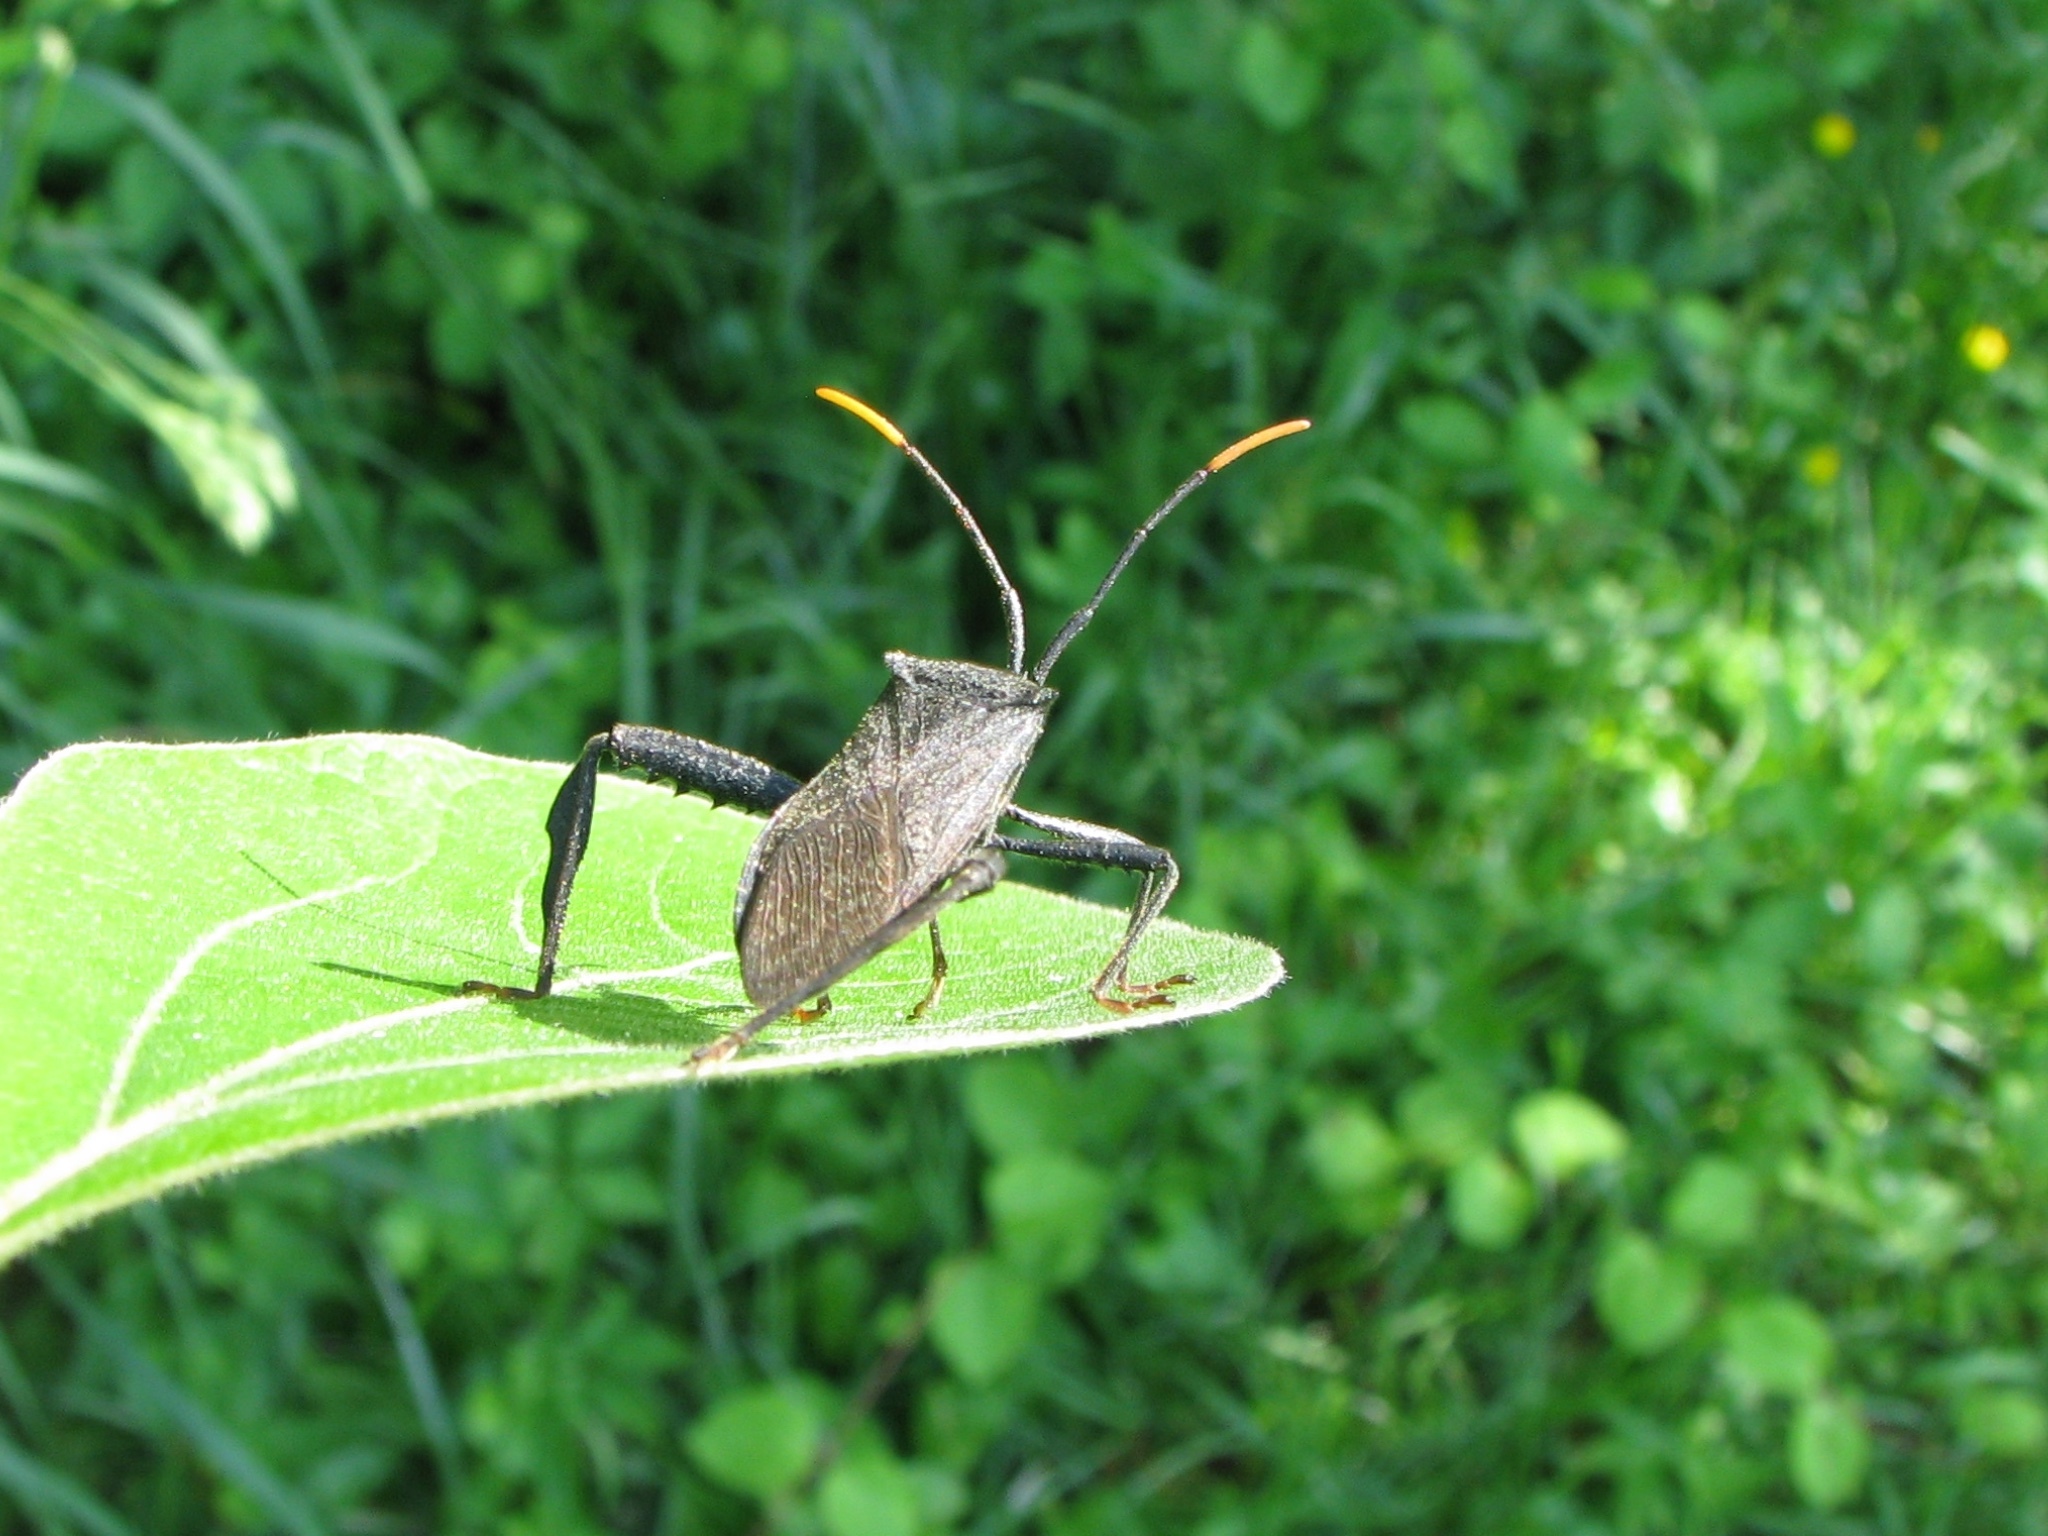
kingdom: Animalia
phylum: Arthropoda
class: Insecta
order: Hemiptera
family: Coreidae
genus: Acanthocephala
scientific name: Acanthocephala terminalis
